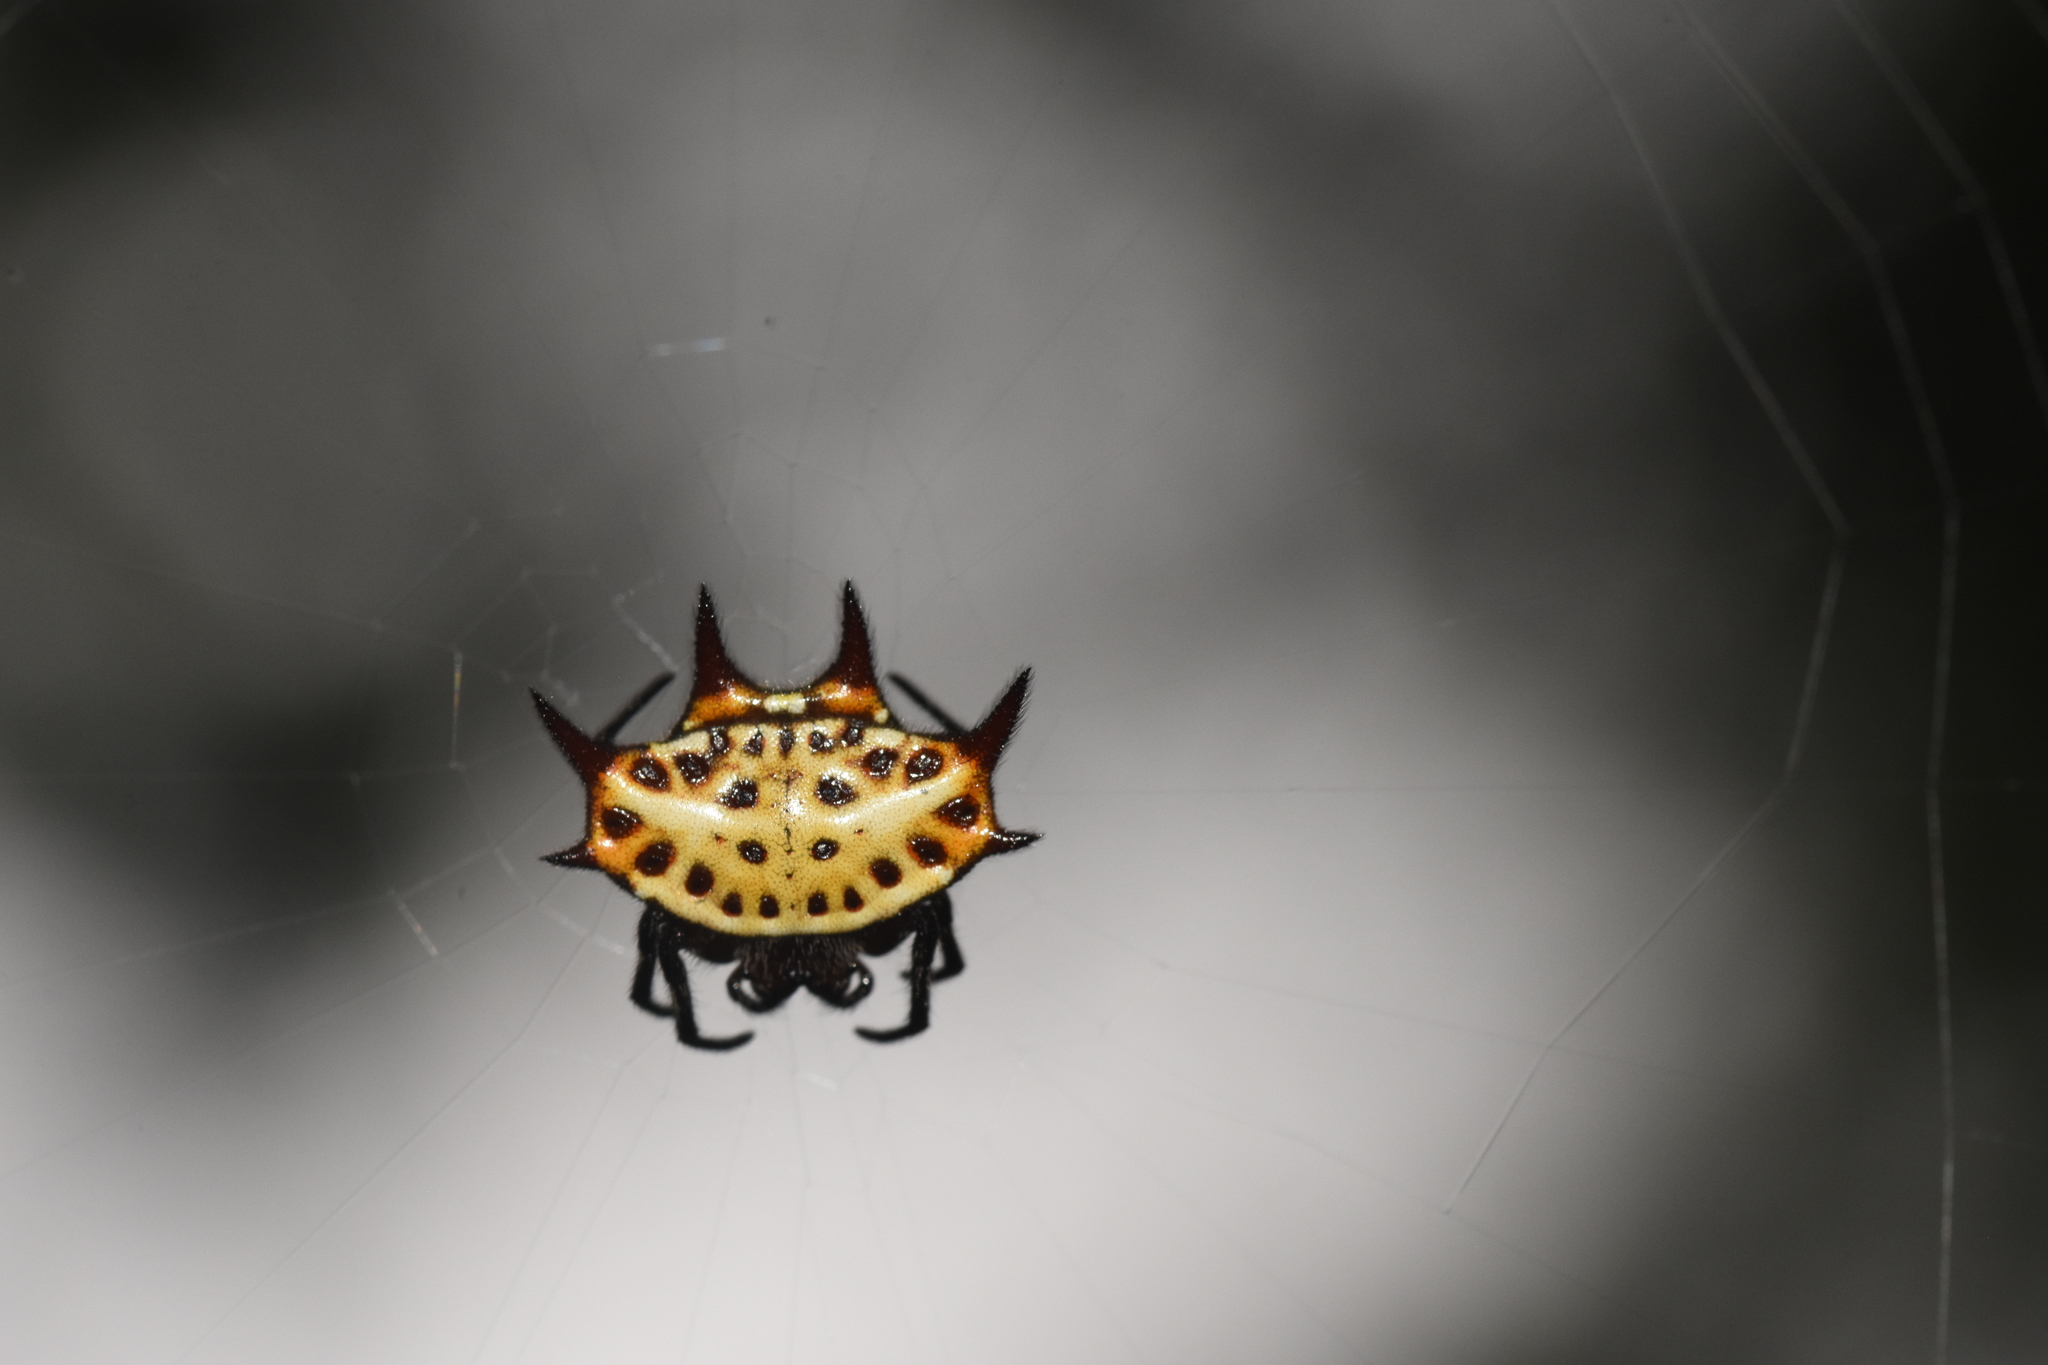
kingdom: Animalia
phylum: Arthropoda
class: Arachnida
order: Araneae
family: Araneidae
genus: Gasteracantha
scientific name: Gasteracantha curvispina
